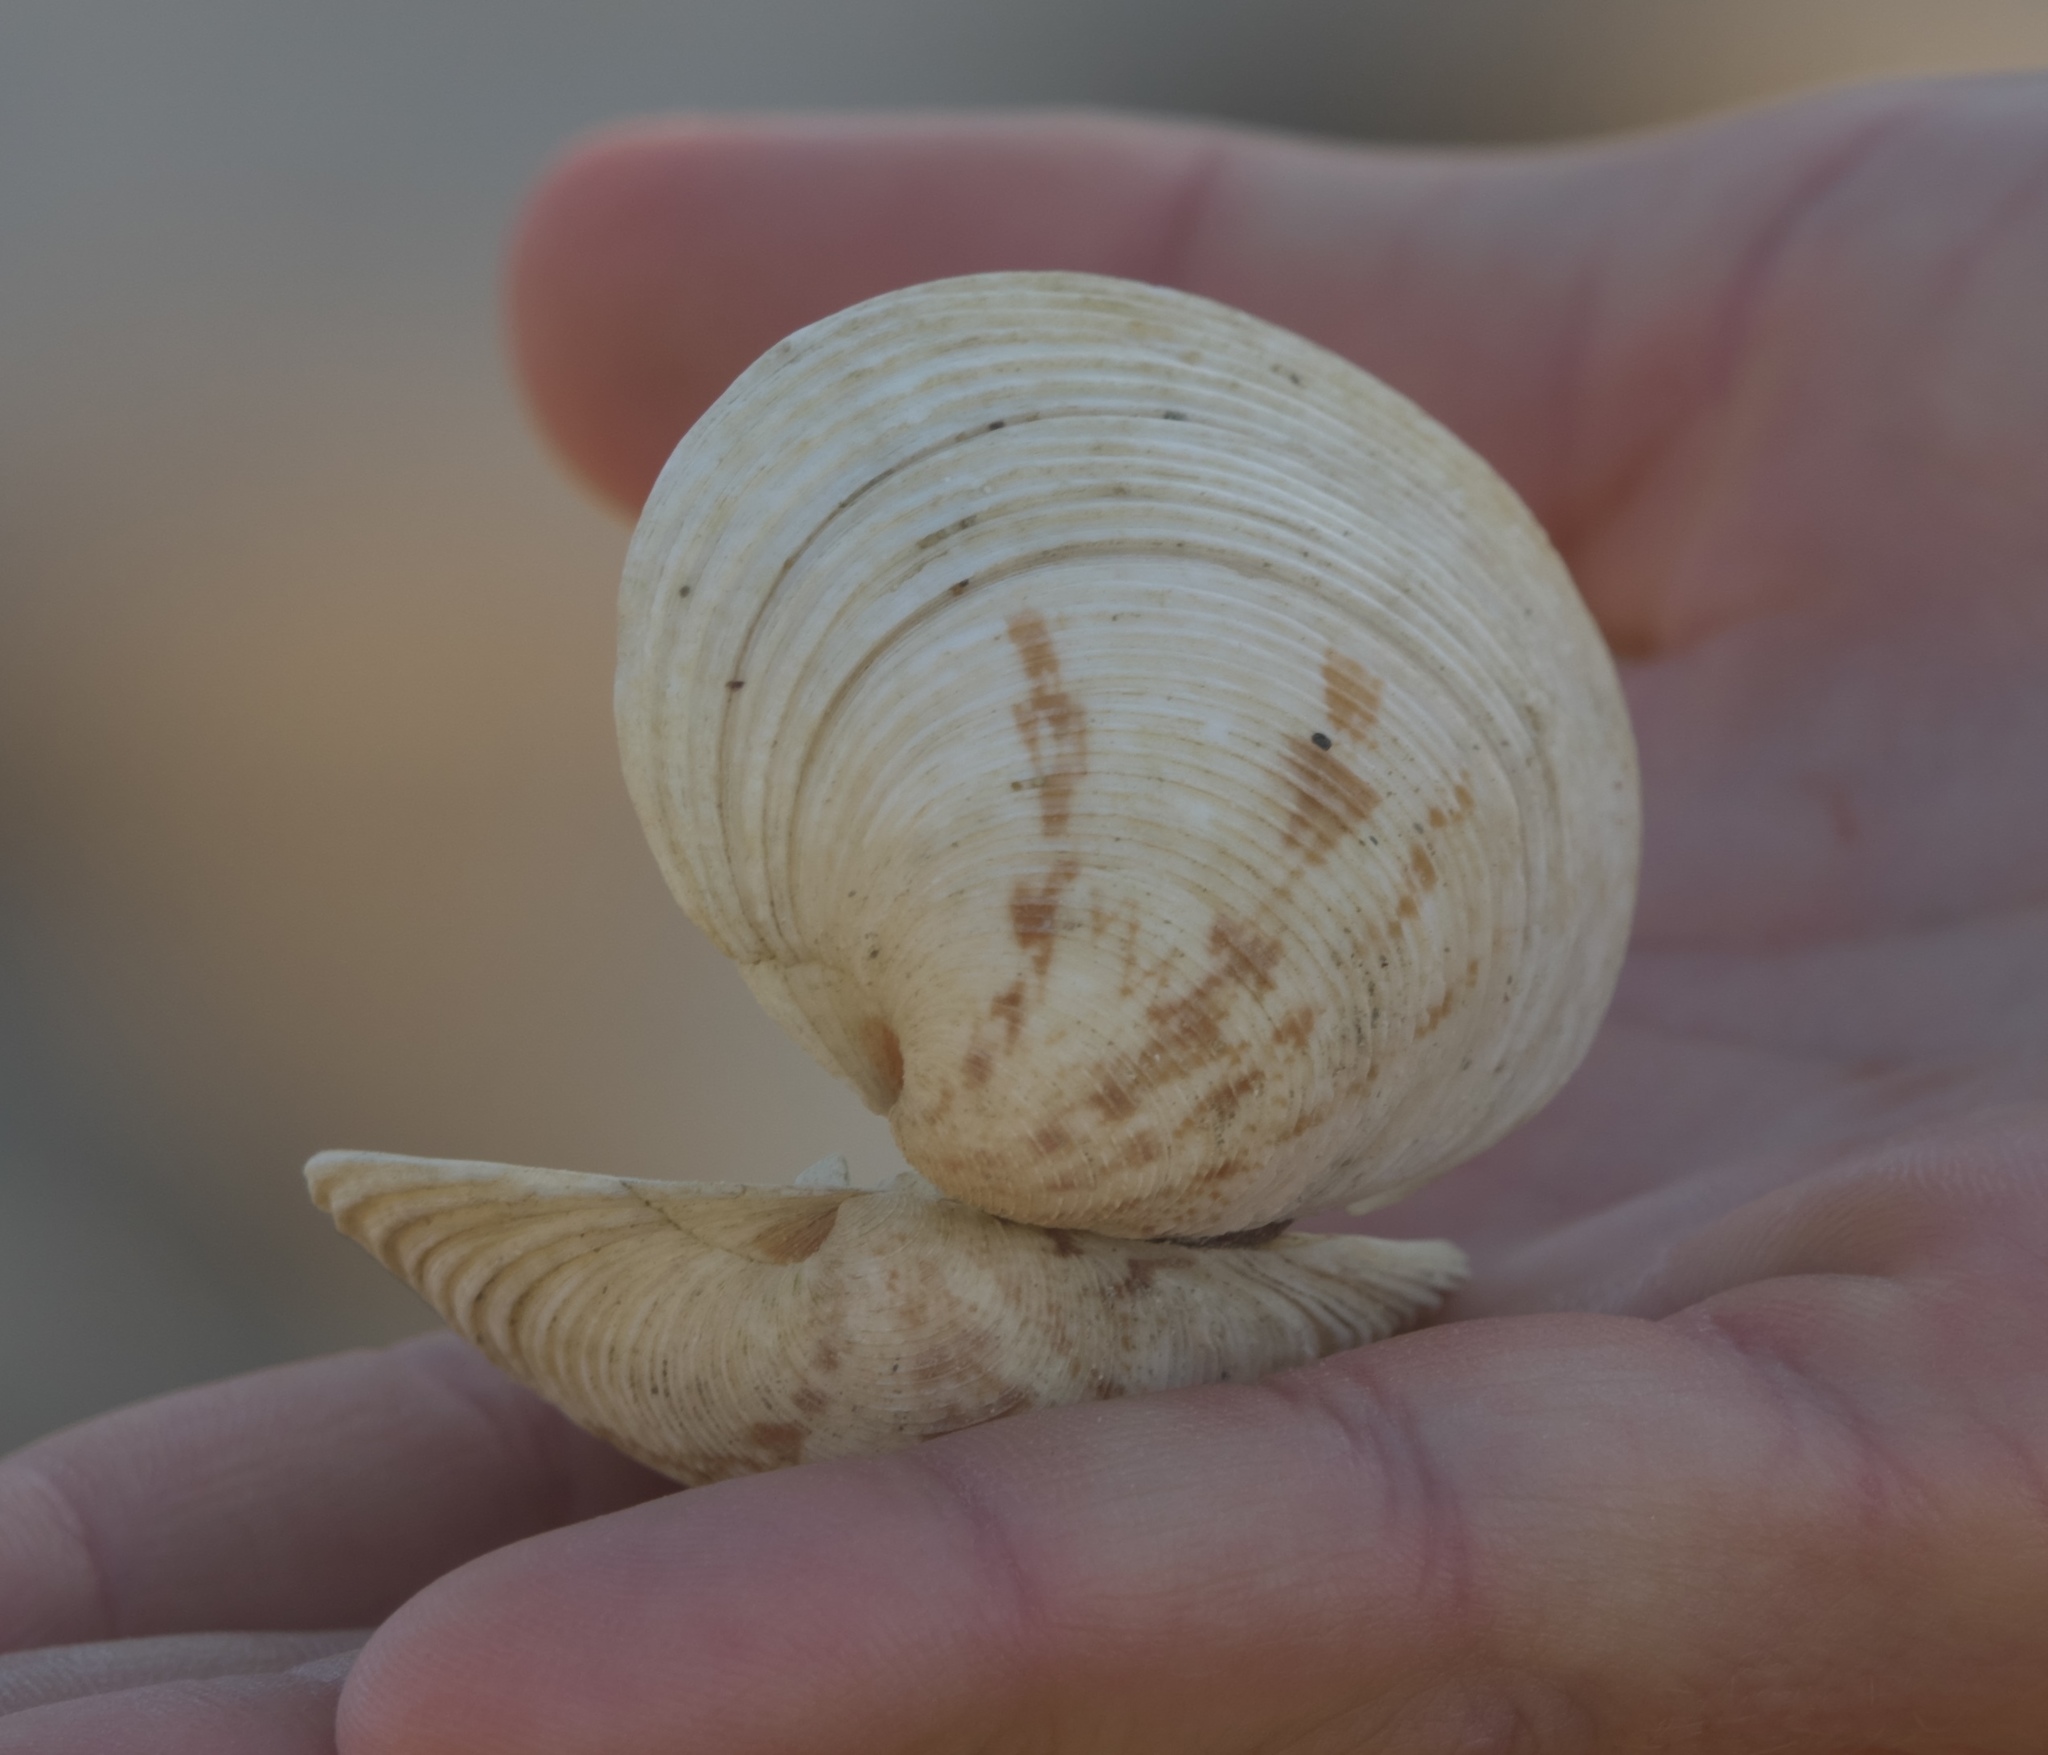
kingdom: Animalia
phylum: Mollusca
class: Bivalvia
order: Venerida
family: Veneridae
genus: Dosina
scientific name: Dosina mactracea
